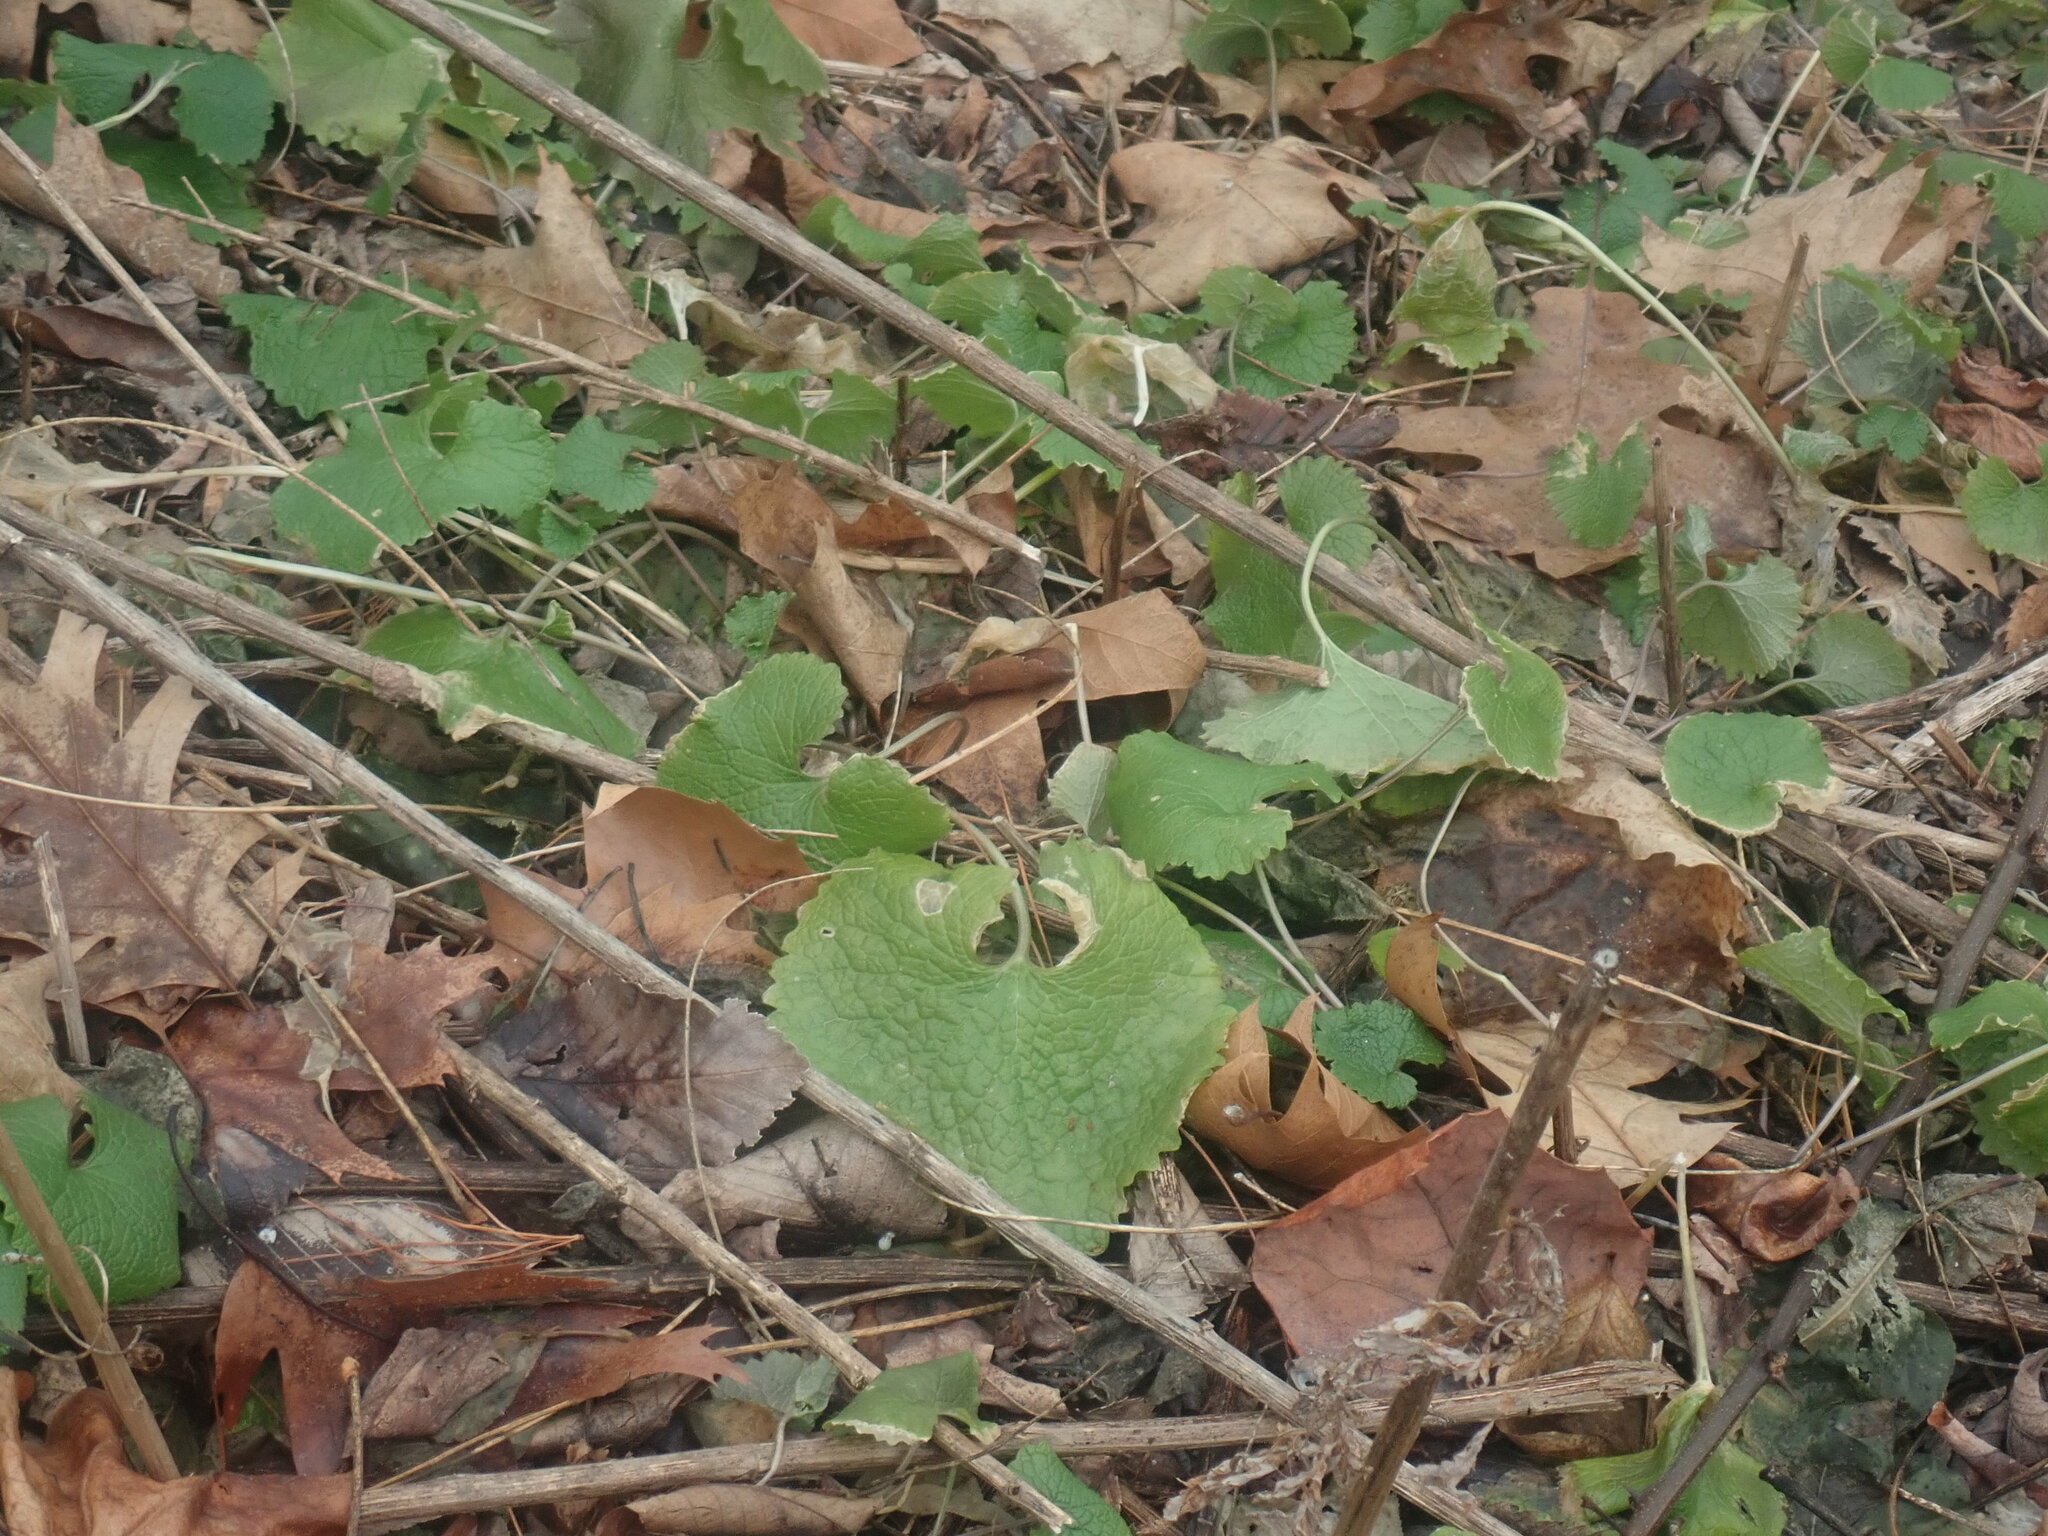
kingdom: Plantae
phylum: Tracheophyta
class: Magnoliopsida
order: Brassicales
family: Brassicaceae
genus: Alliaria
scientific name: Alliaria petiolata
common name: Garlic mustard
